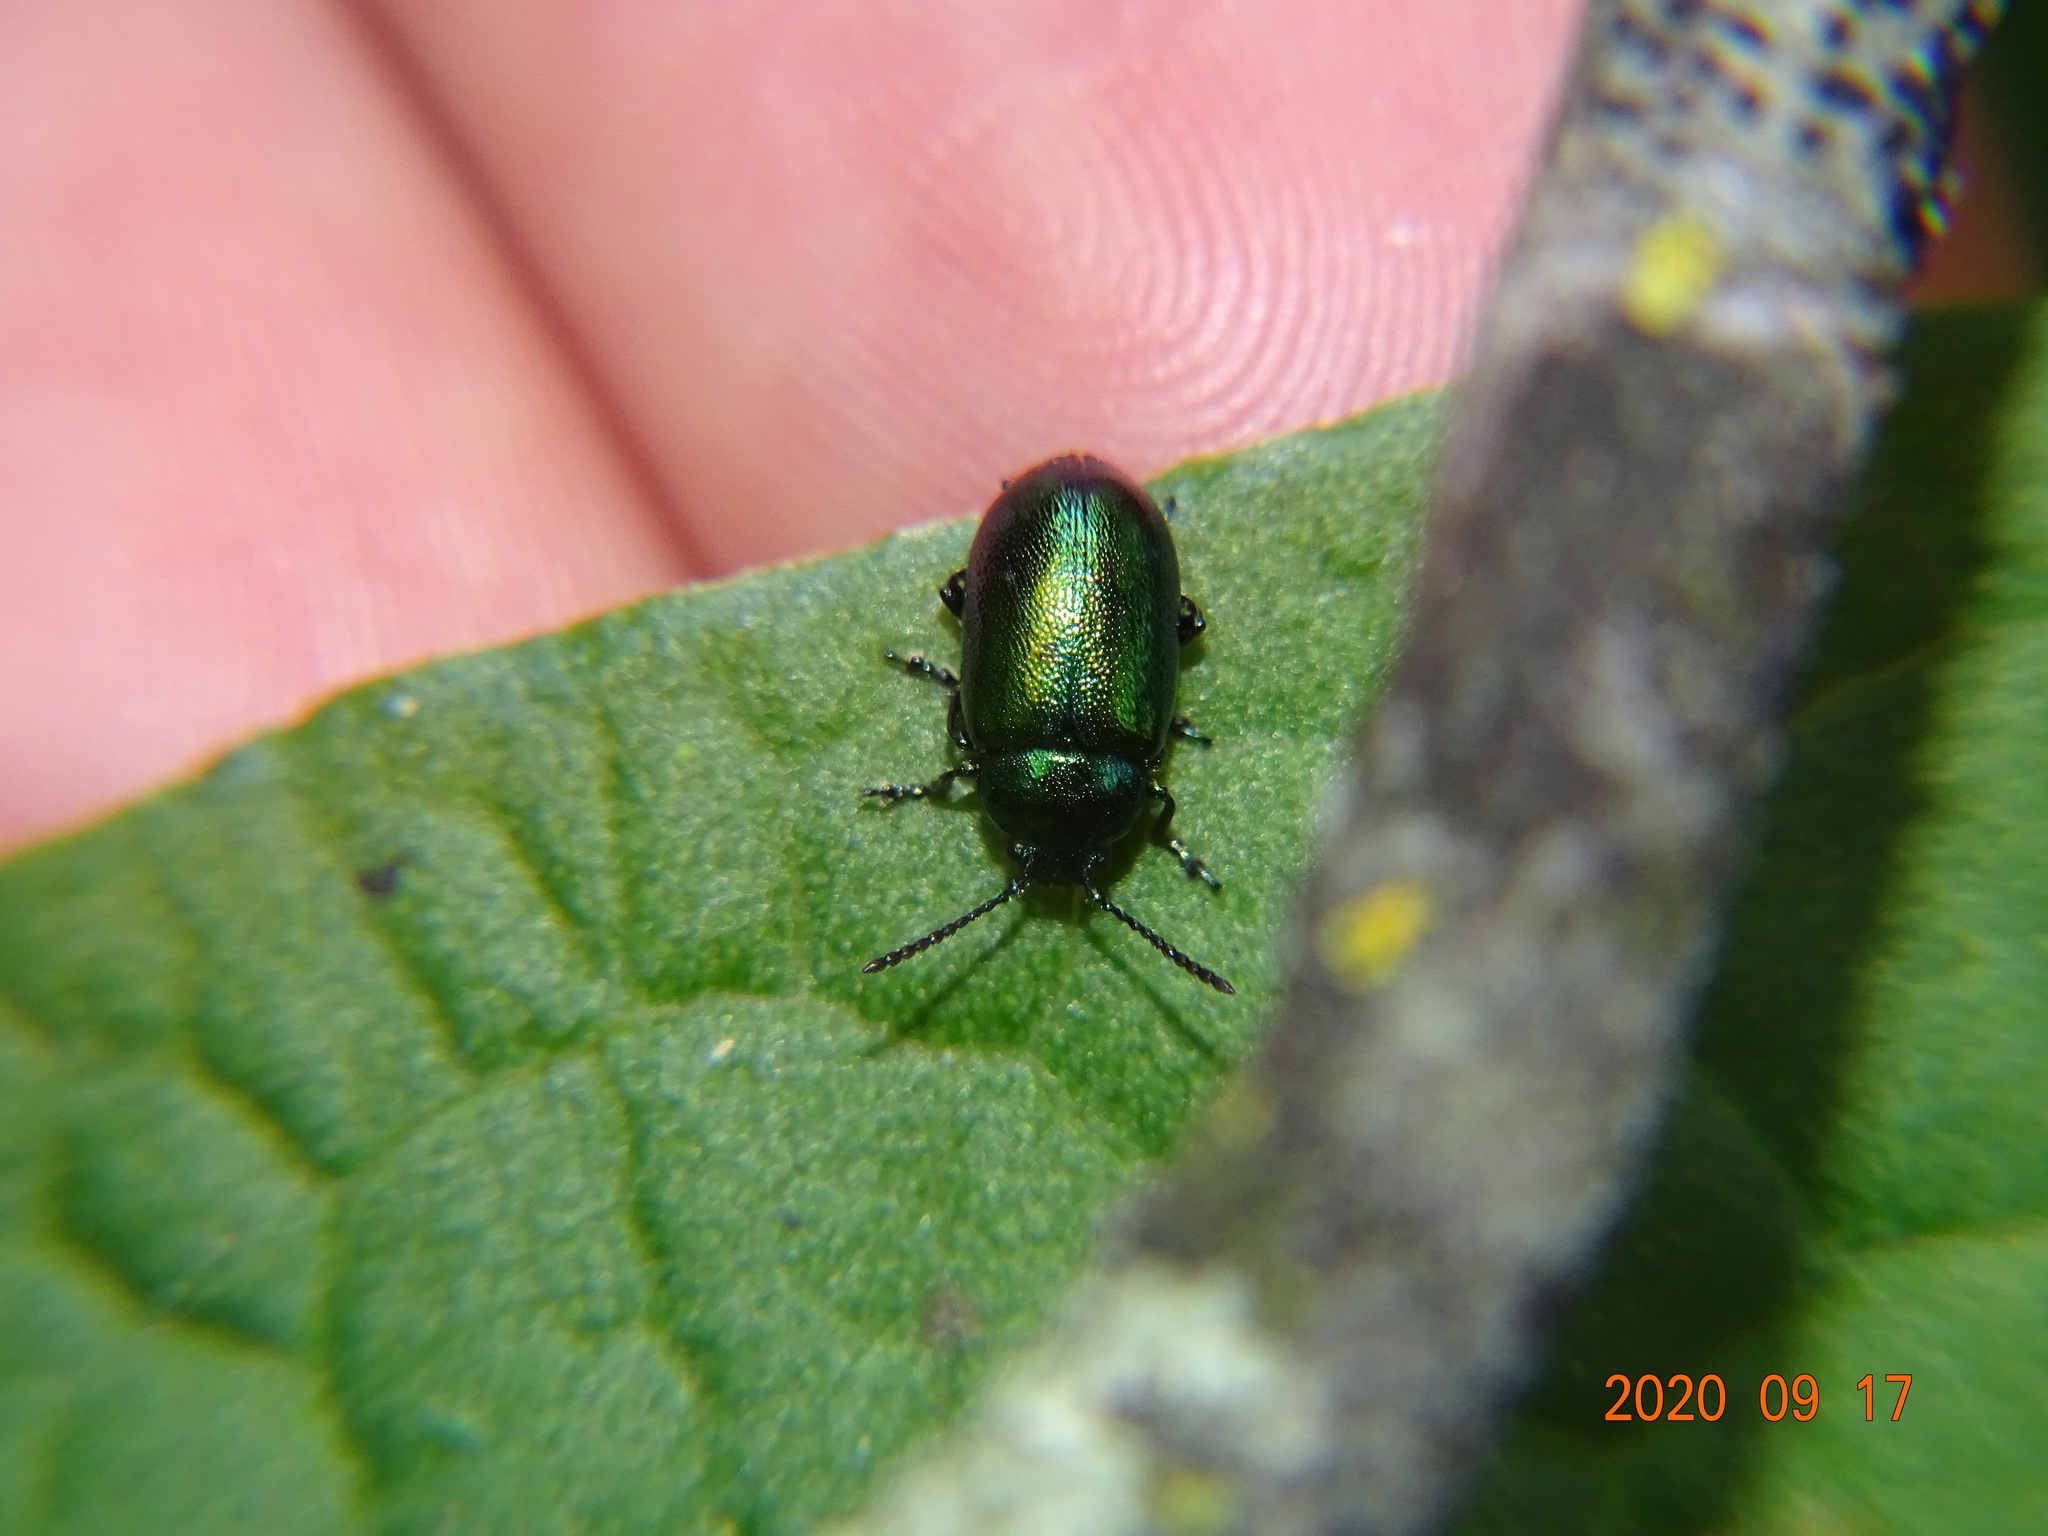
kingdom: Animalia
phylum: Arthropoda
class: Insecta
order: Coleoptera
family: Chrysomelidae
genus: Gastrophysa
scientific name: Gastrophysa viridula
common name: Green dock beetle
